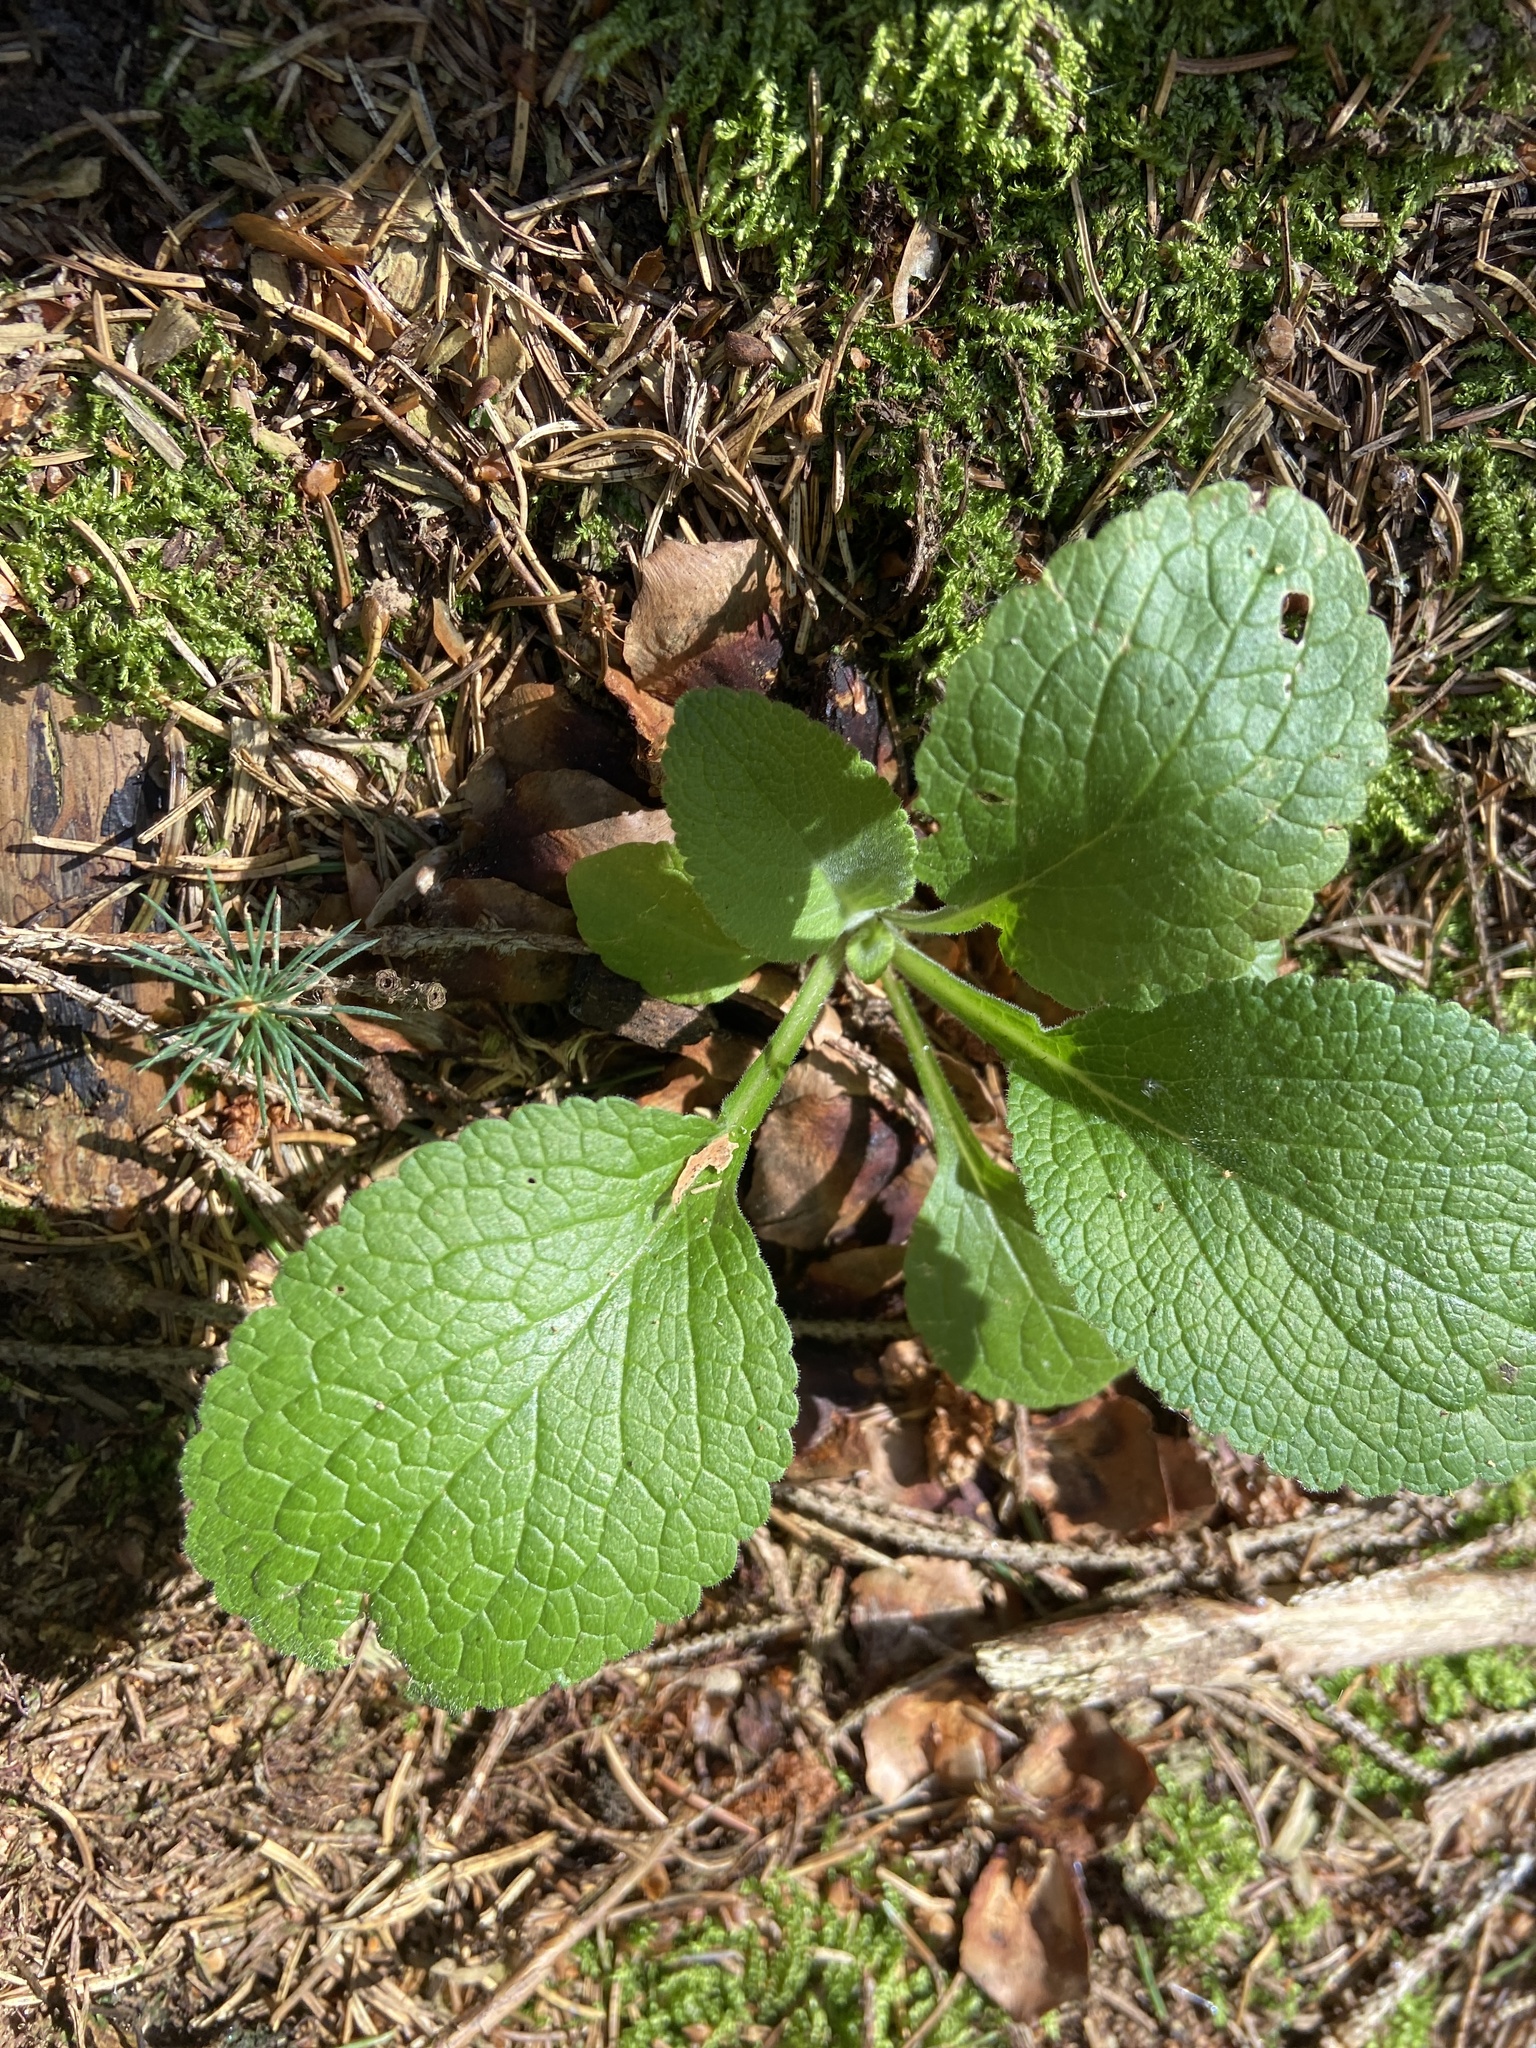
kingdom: Plantae
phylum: Tracheophyta
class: Magnoliopsida
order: Lamiales
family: Plantaginaceae
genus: Digitalis
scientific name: Digitalis purpurea
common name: Foxglove
